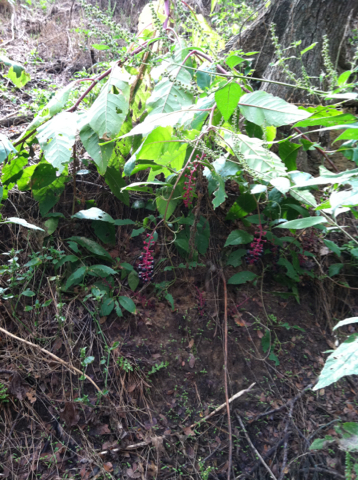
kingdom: Plantae
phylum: Tracheophyta
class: Magnoliopsida
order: Caryophyllales
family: Phytolaccaceae
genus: Phytolacca
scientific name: Phytolacca americana
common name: American pokeweed
